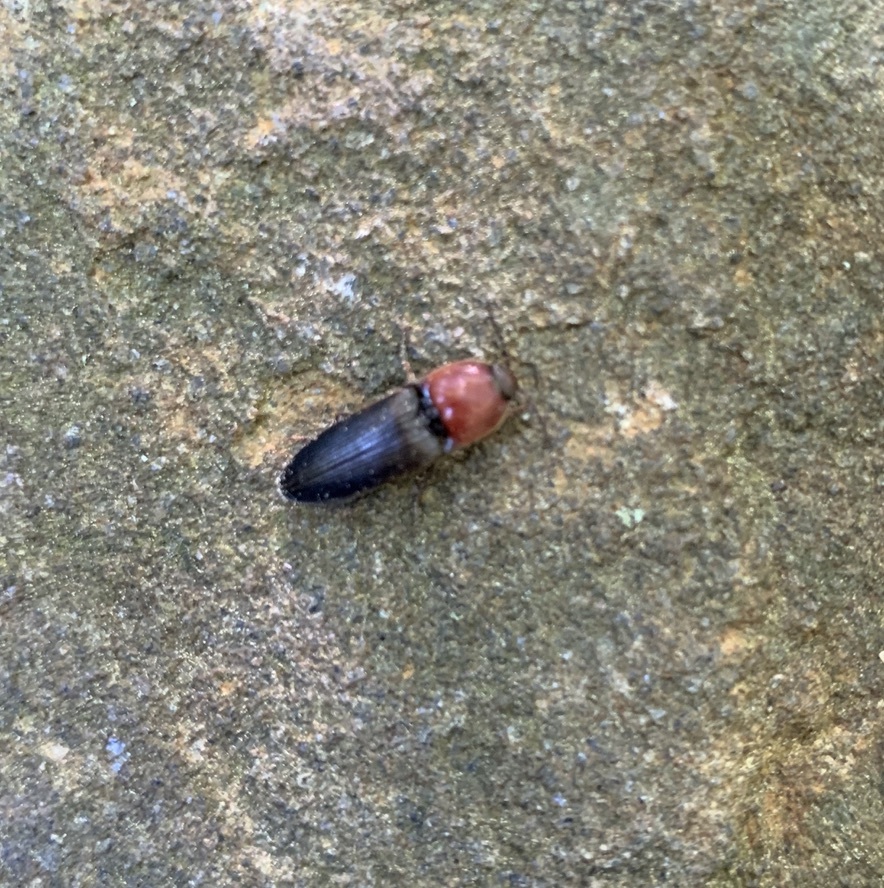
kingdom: Animalia
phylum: Arthropoda
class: Insecta
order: Coleoptera
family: Elateridae
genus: Ampedus
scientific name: Ampedus rubricollis
